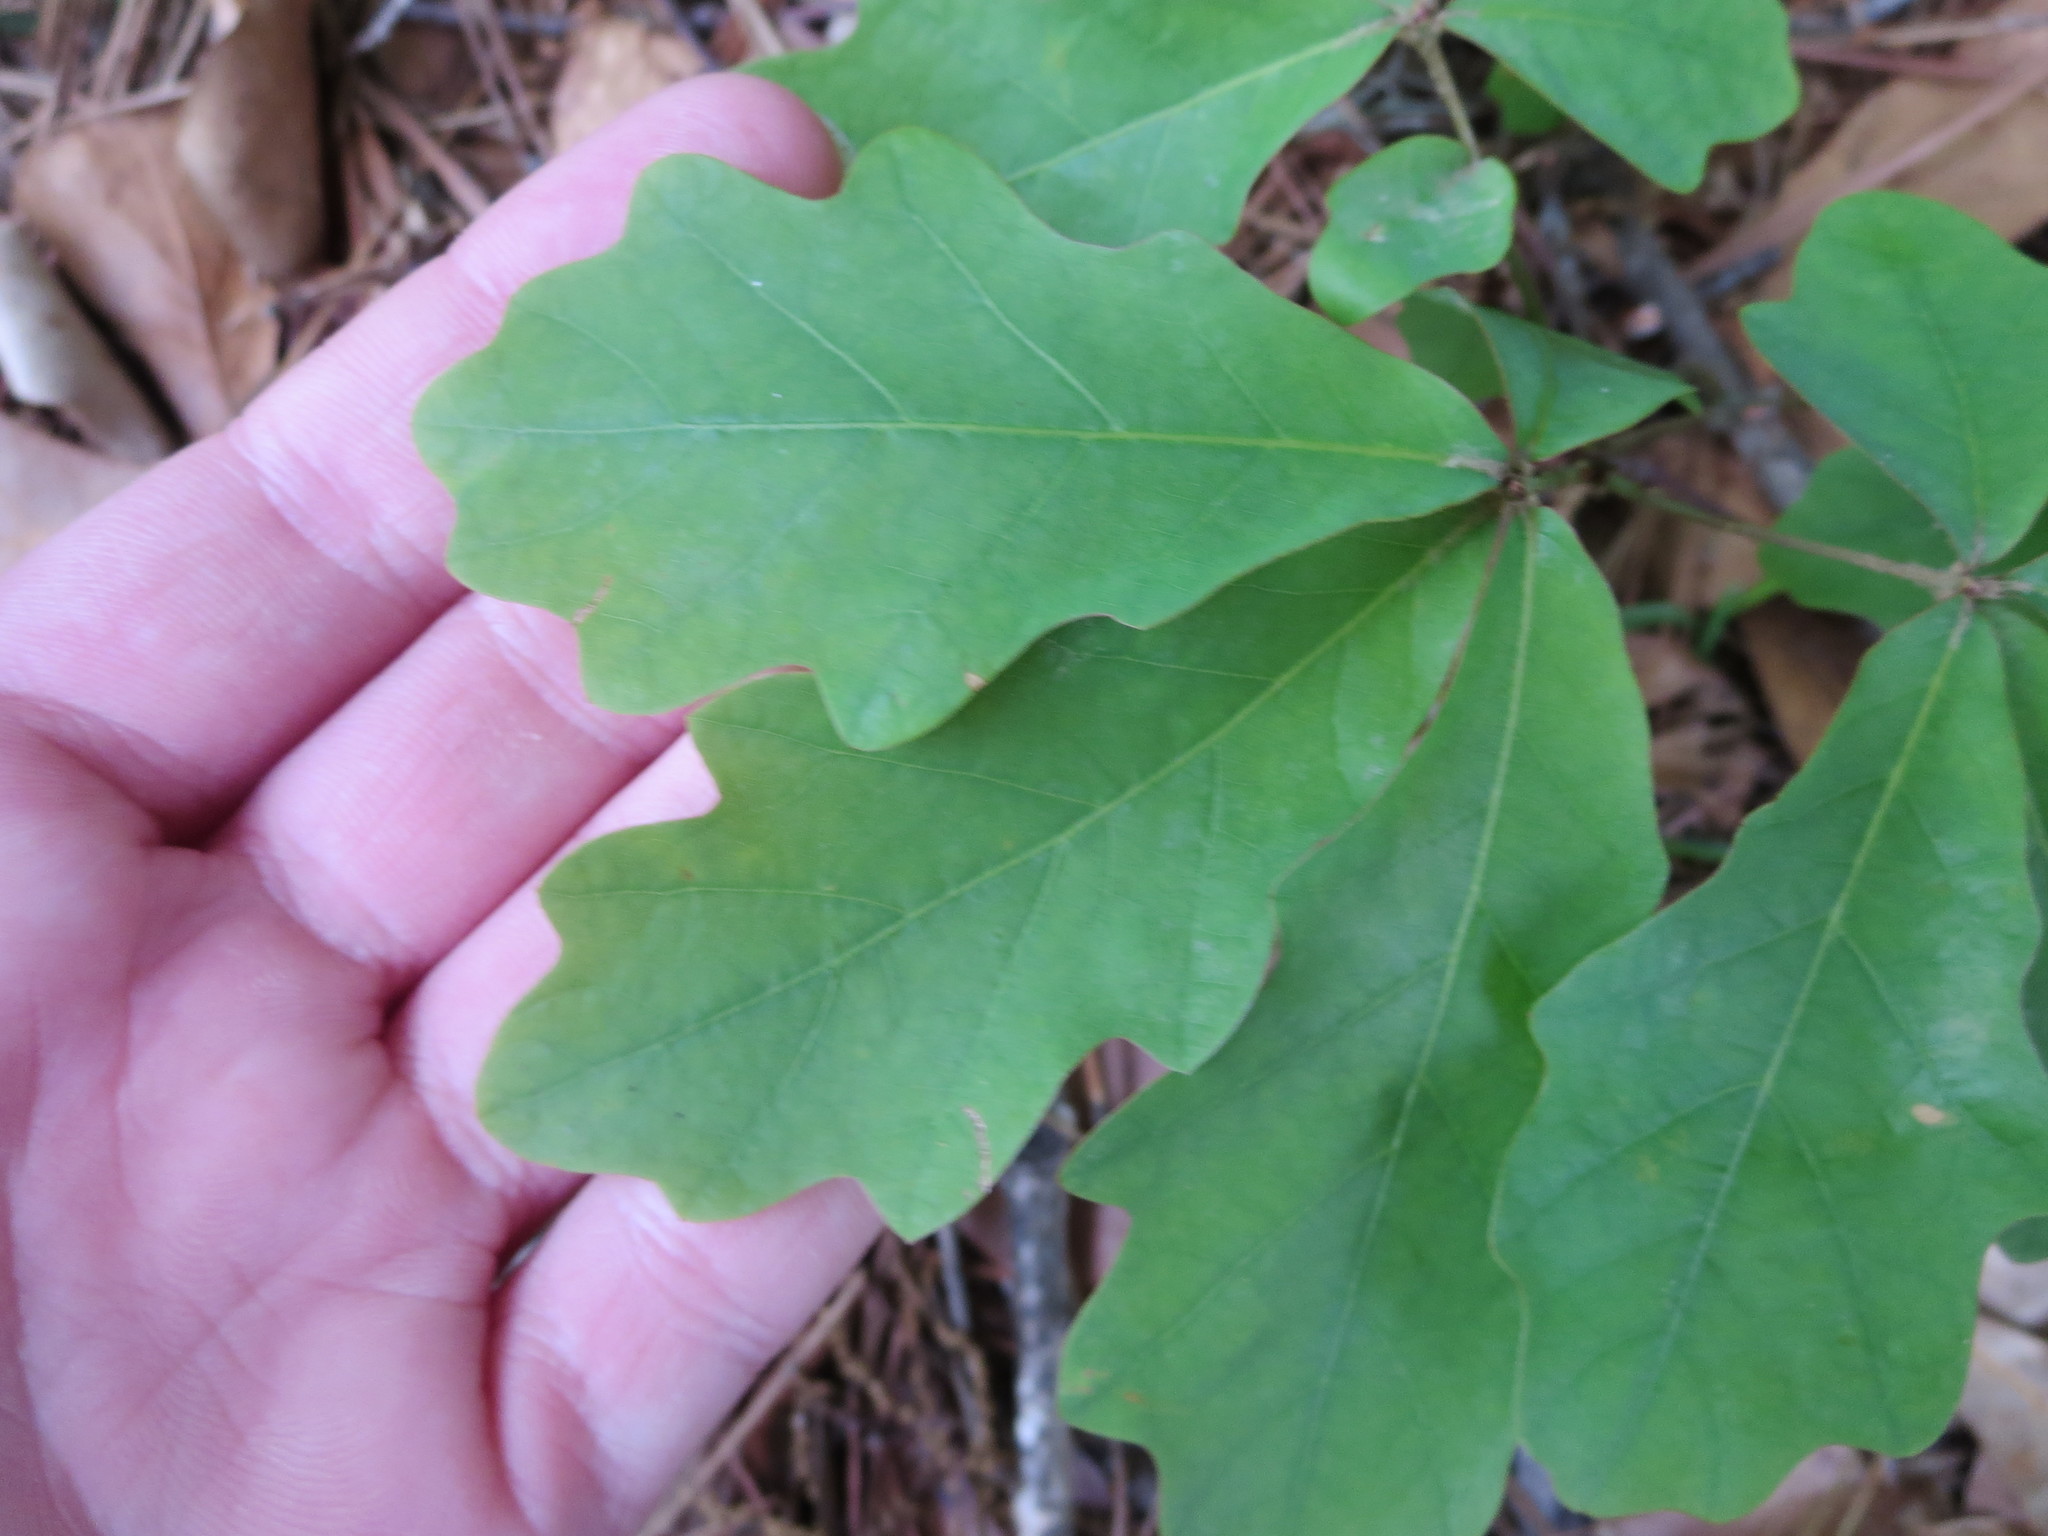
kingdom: Plantae
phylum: Tracheophyta
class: Magnoliopsida
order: Fagales
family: Fagaceae
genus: Quercus
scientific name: Quercus alba
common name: White oak
